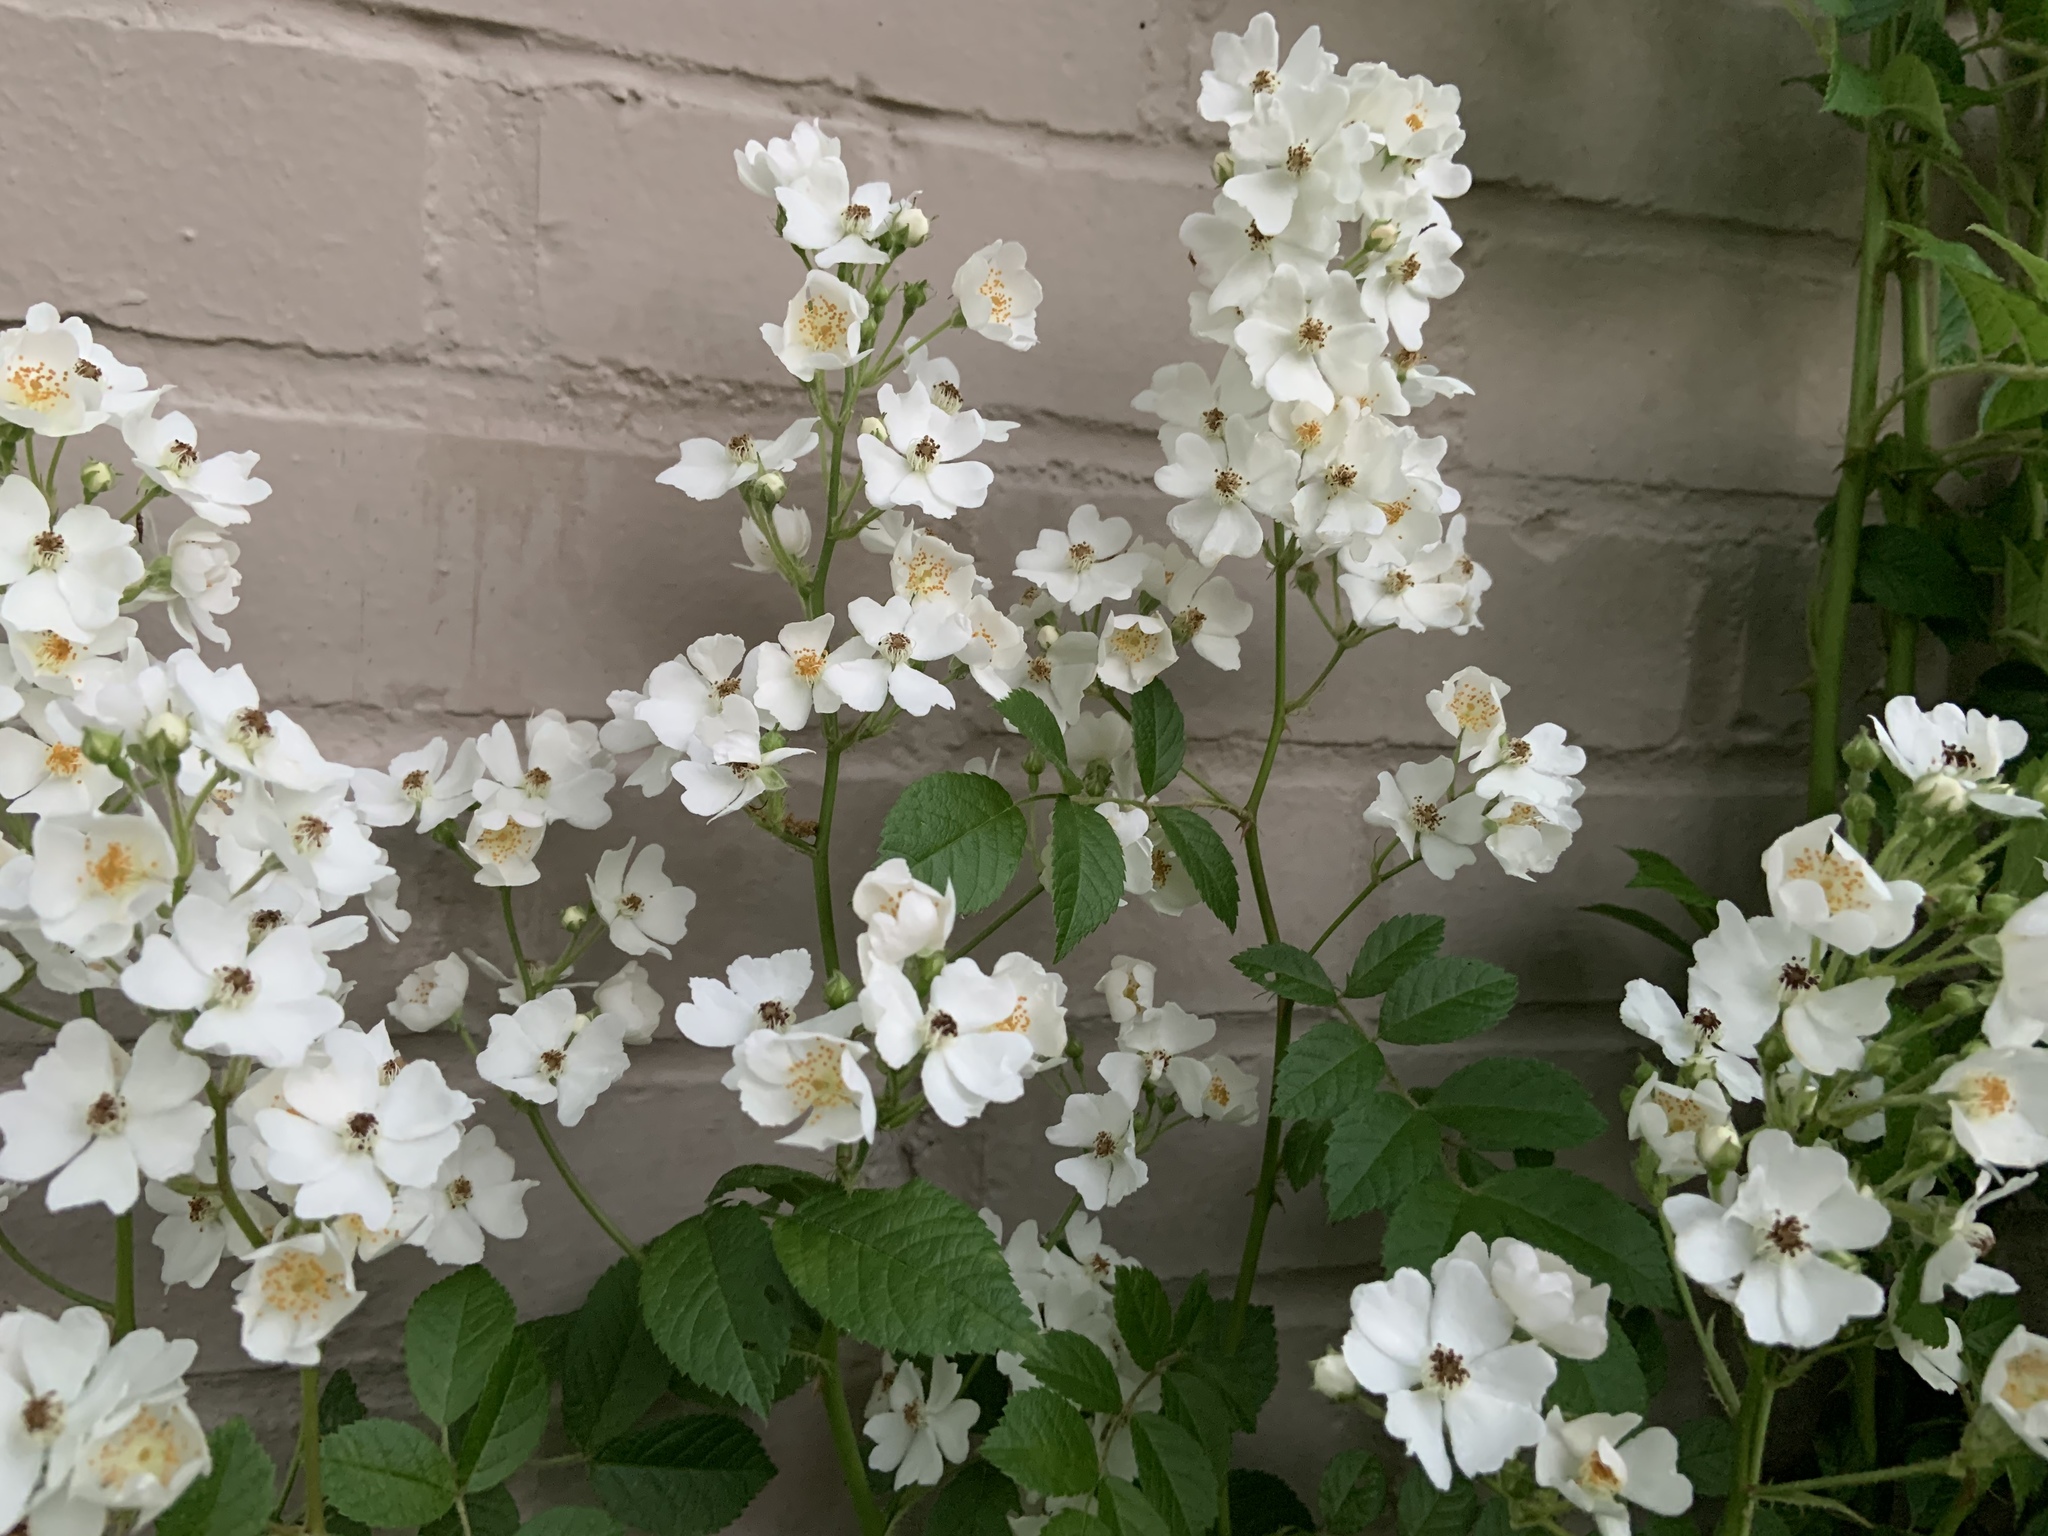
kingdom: Plantae
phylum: Tracheophyta
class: Magnoliopsida
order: Rosales
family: Rosaceae
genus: Rosa
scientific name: Rosa multiflora
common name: Multiflora rose
